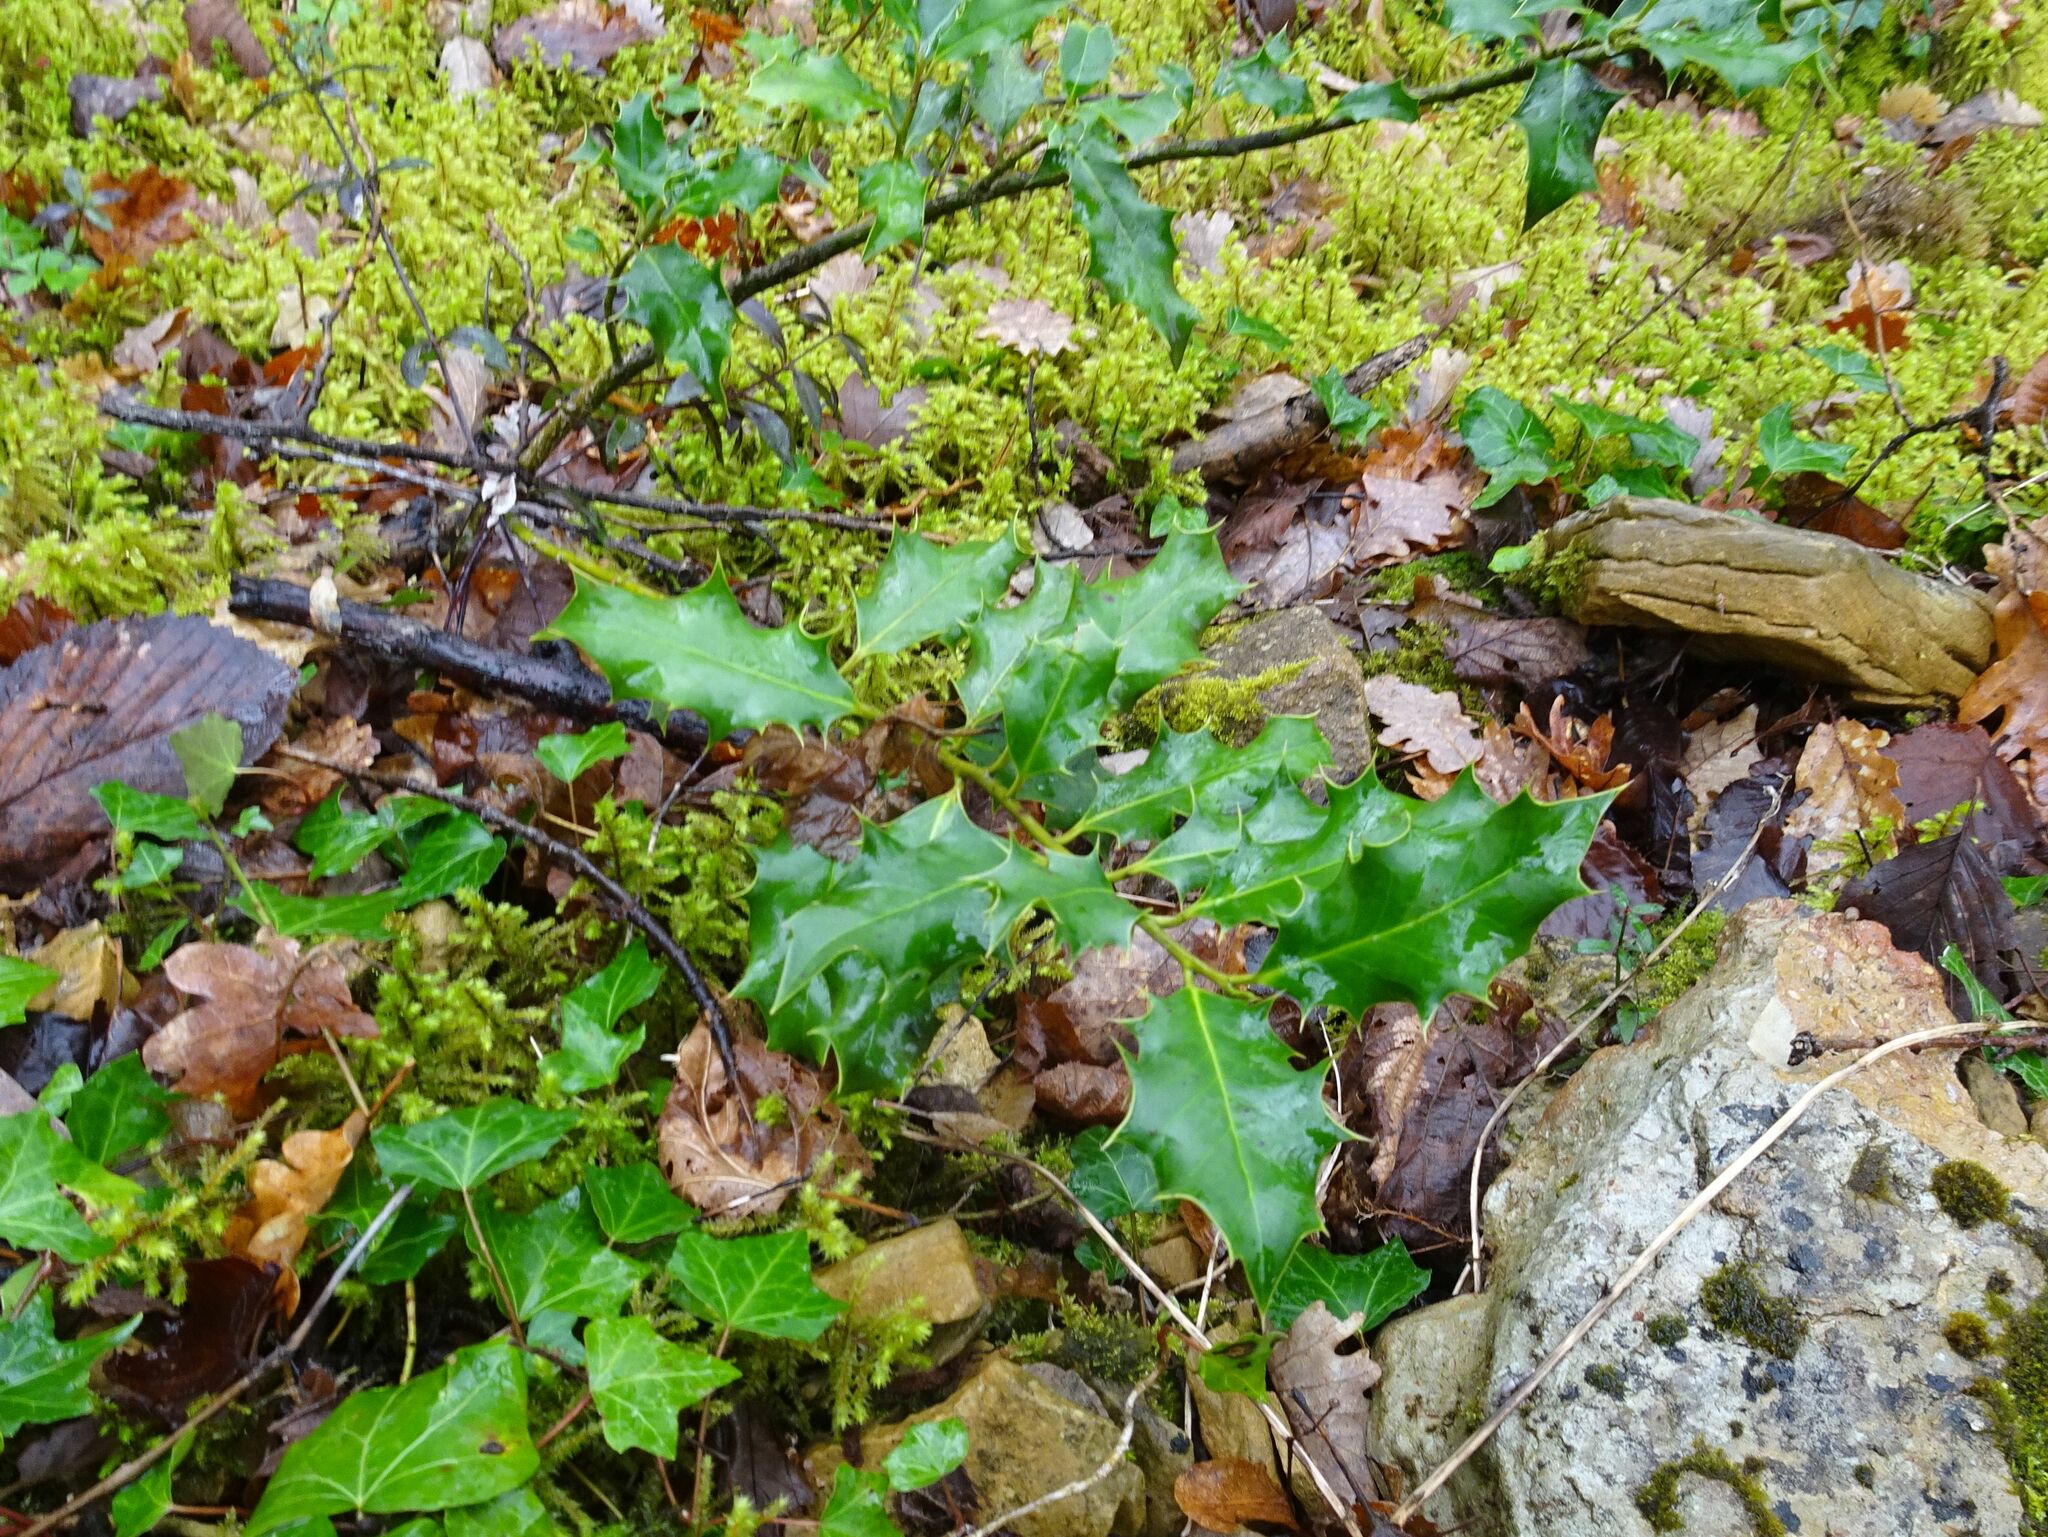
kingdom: Plantae
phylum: Tracheophyta
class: Magnoliopsida
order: Aquifoliales
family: Aquifoliaceae
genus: Ilex
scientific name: Ilex aquifolium
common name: English holly
